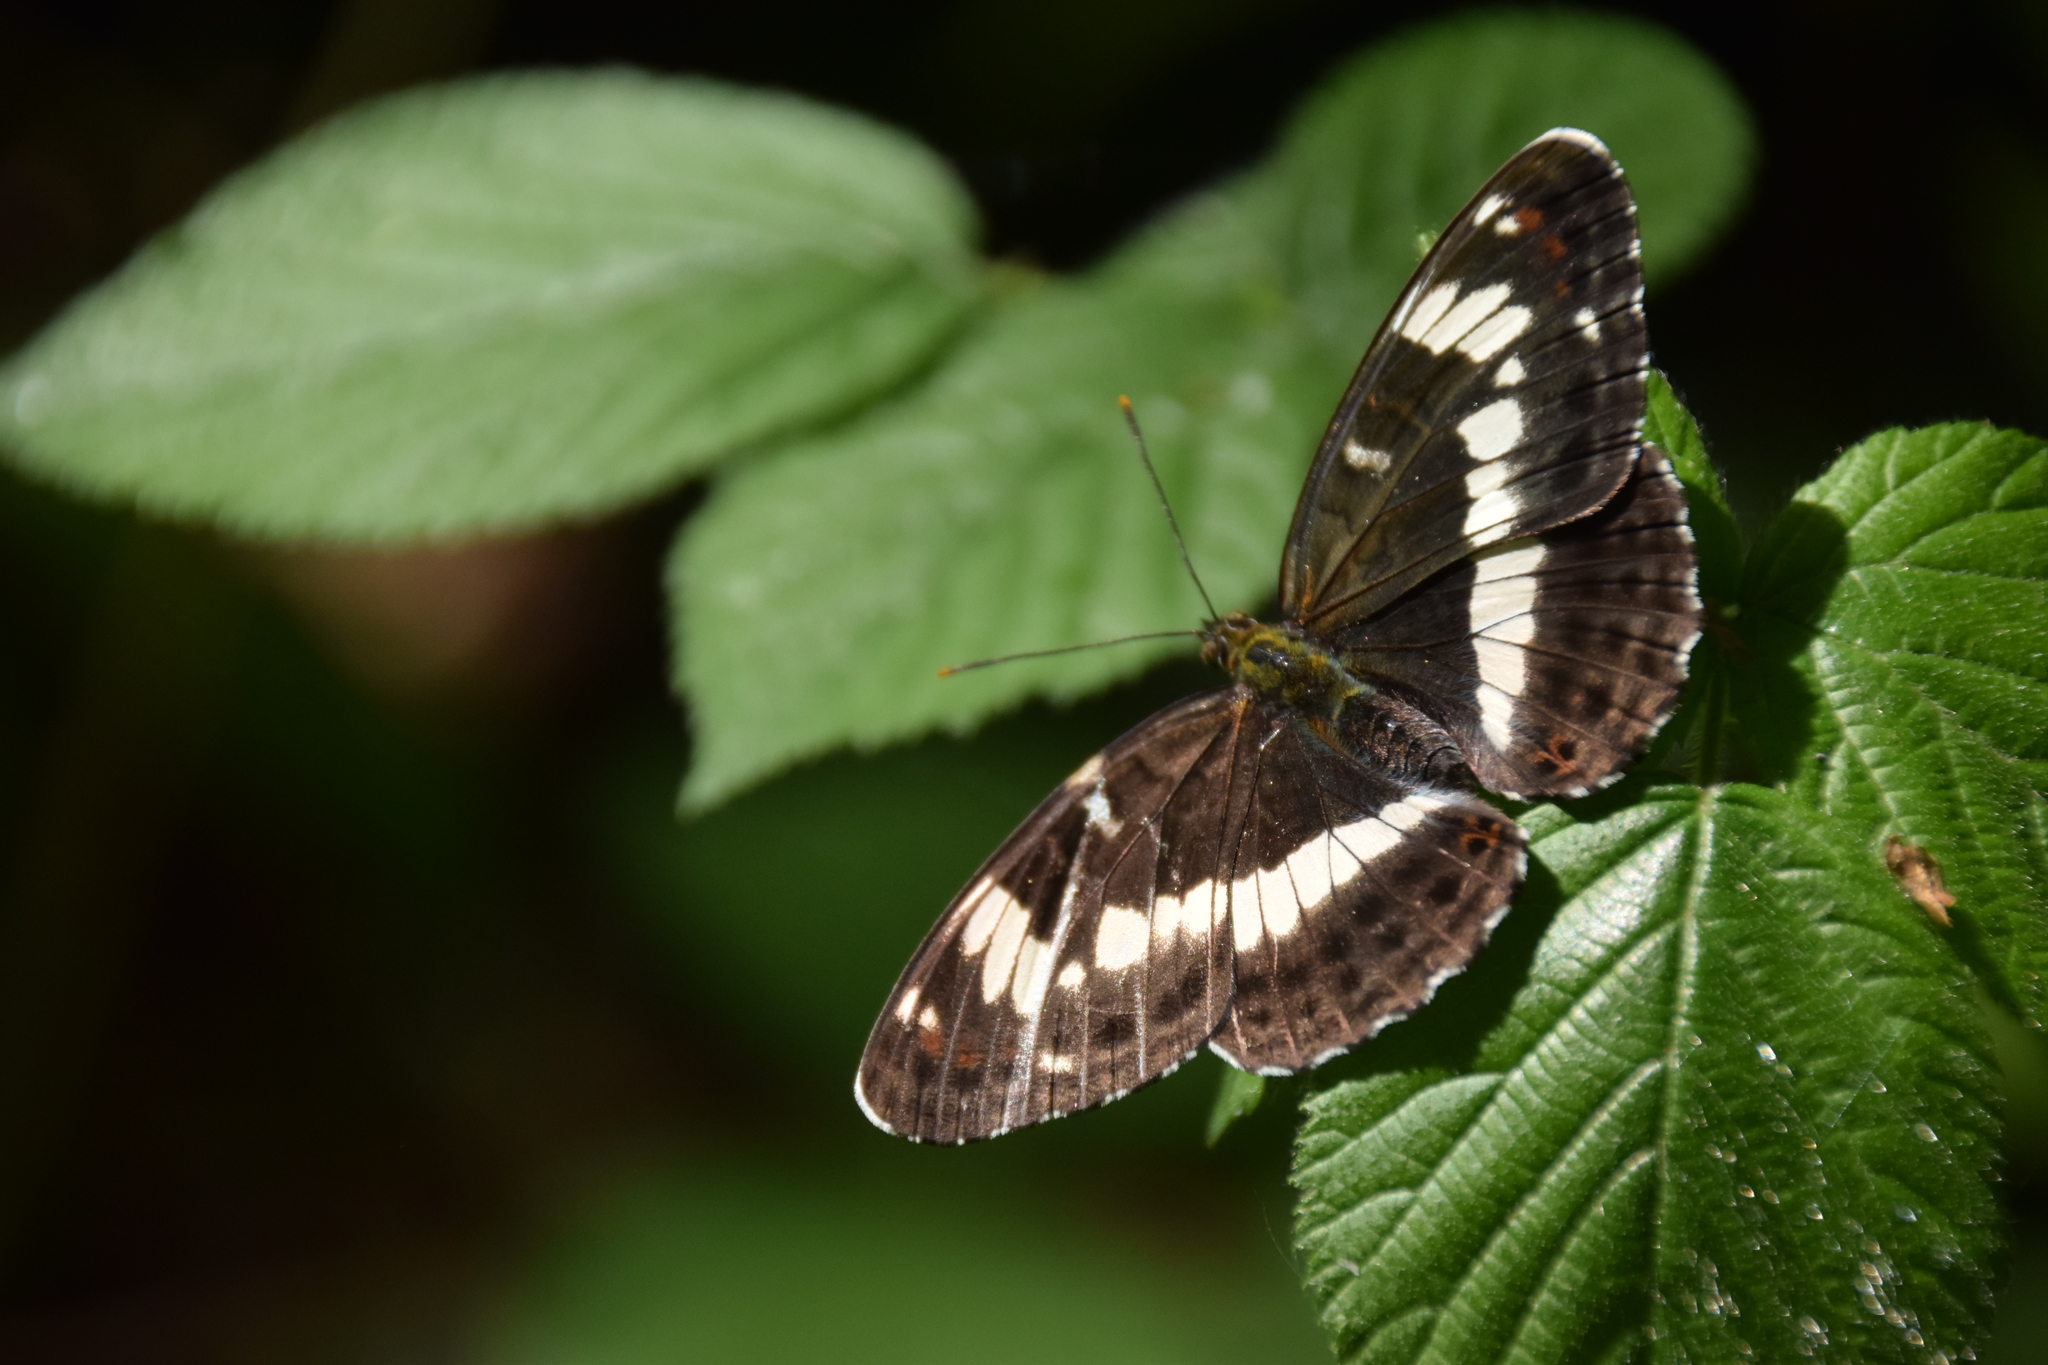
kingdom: Animalia
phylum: Arthropoda
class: Insecta
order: Lepidoptera
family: Nymphalidae
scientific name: Nymphalidae
